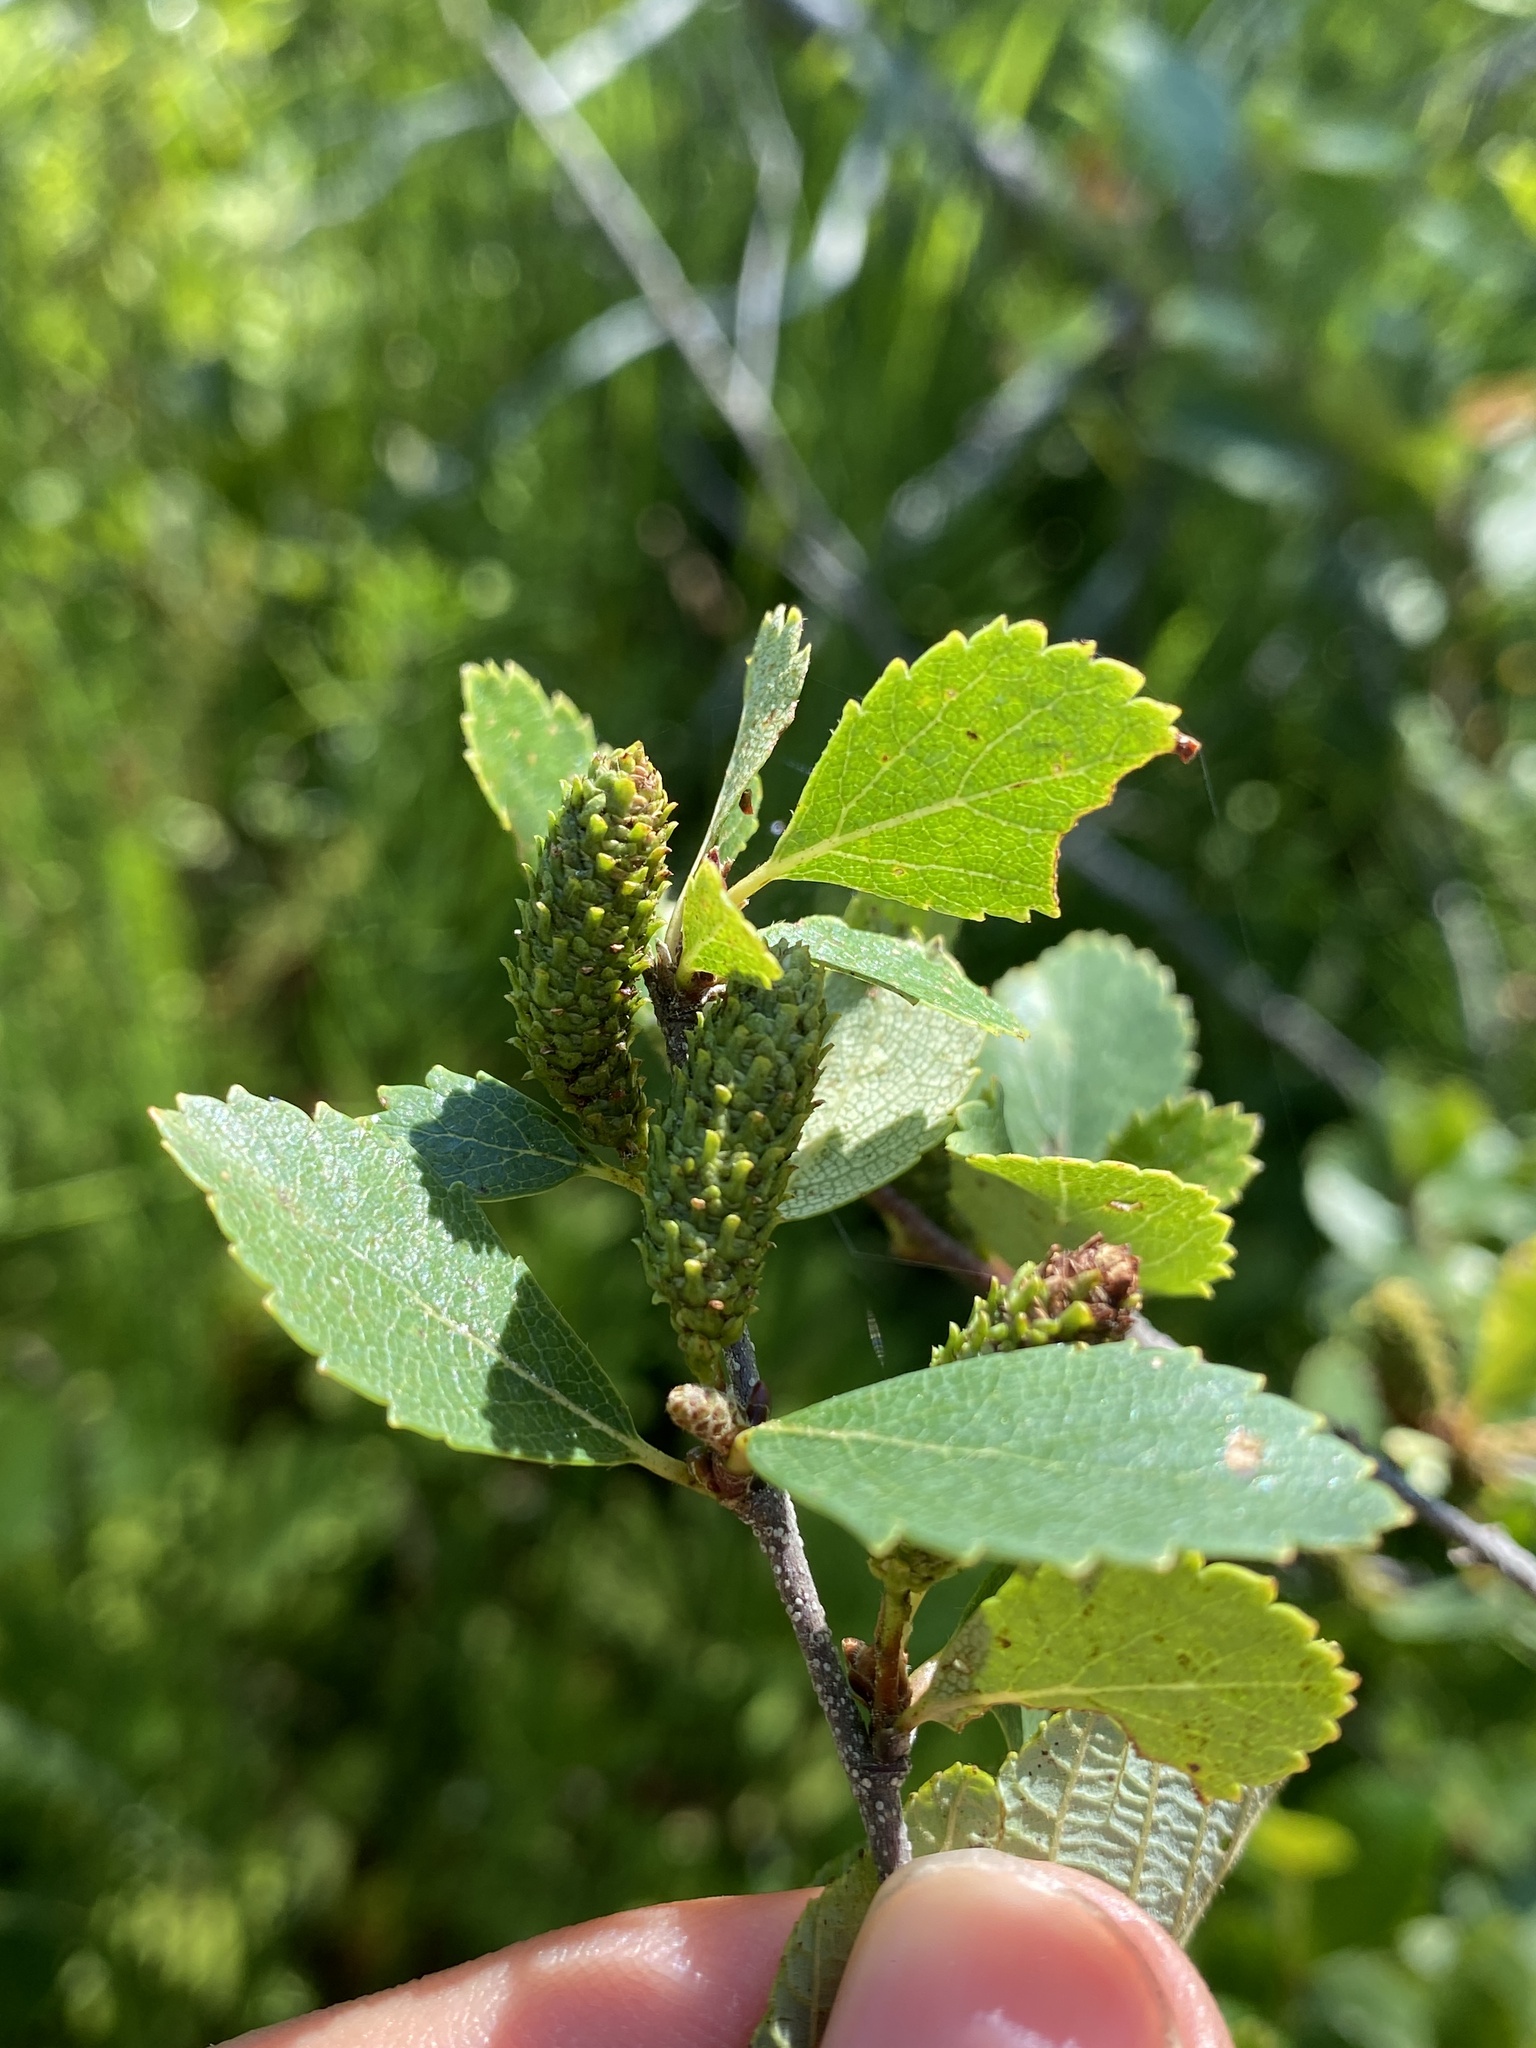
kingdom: Plantae
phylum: Tracheophyta
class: Magnoliopsida
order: Fagales
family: Betulaceae
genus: Betula
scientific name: Betula pumila
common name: Bog birch
